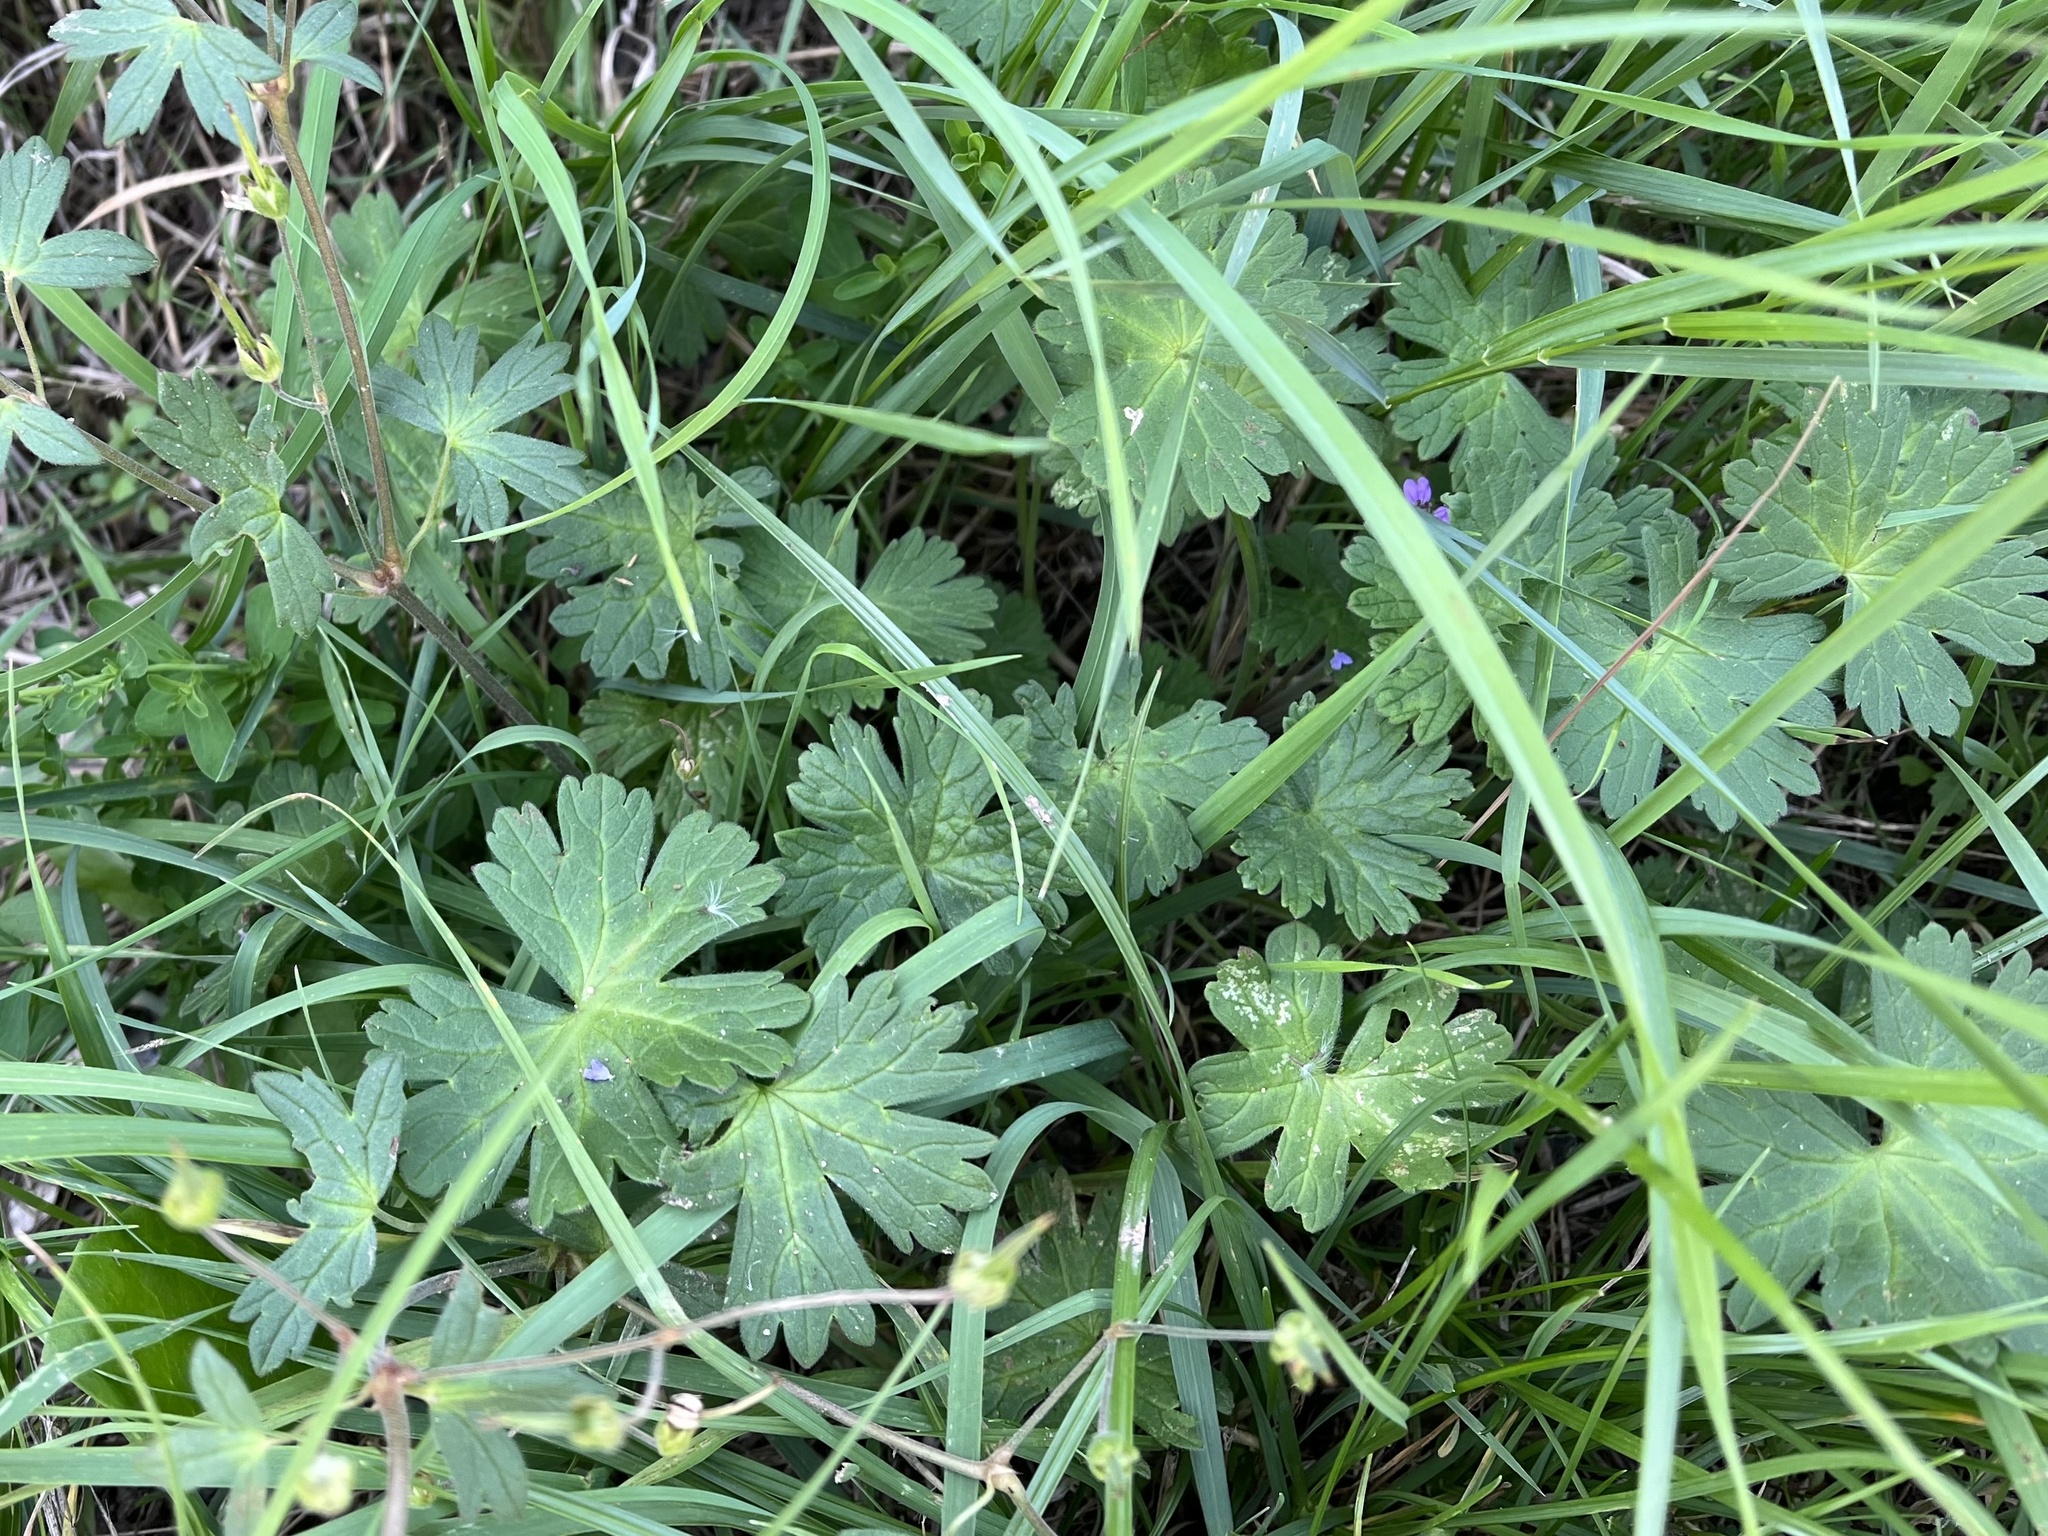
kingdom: Plantae
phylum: Tracheophyta
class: Magnoliopsida
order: Geraniales
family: Geraniaceae
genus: Geranium
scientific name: Geranium pyrenaicum
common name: Hedgerow crane's-bill
